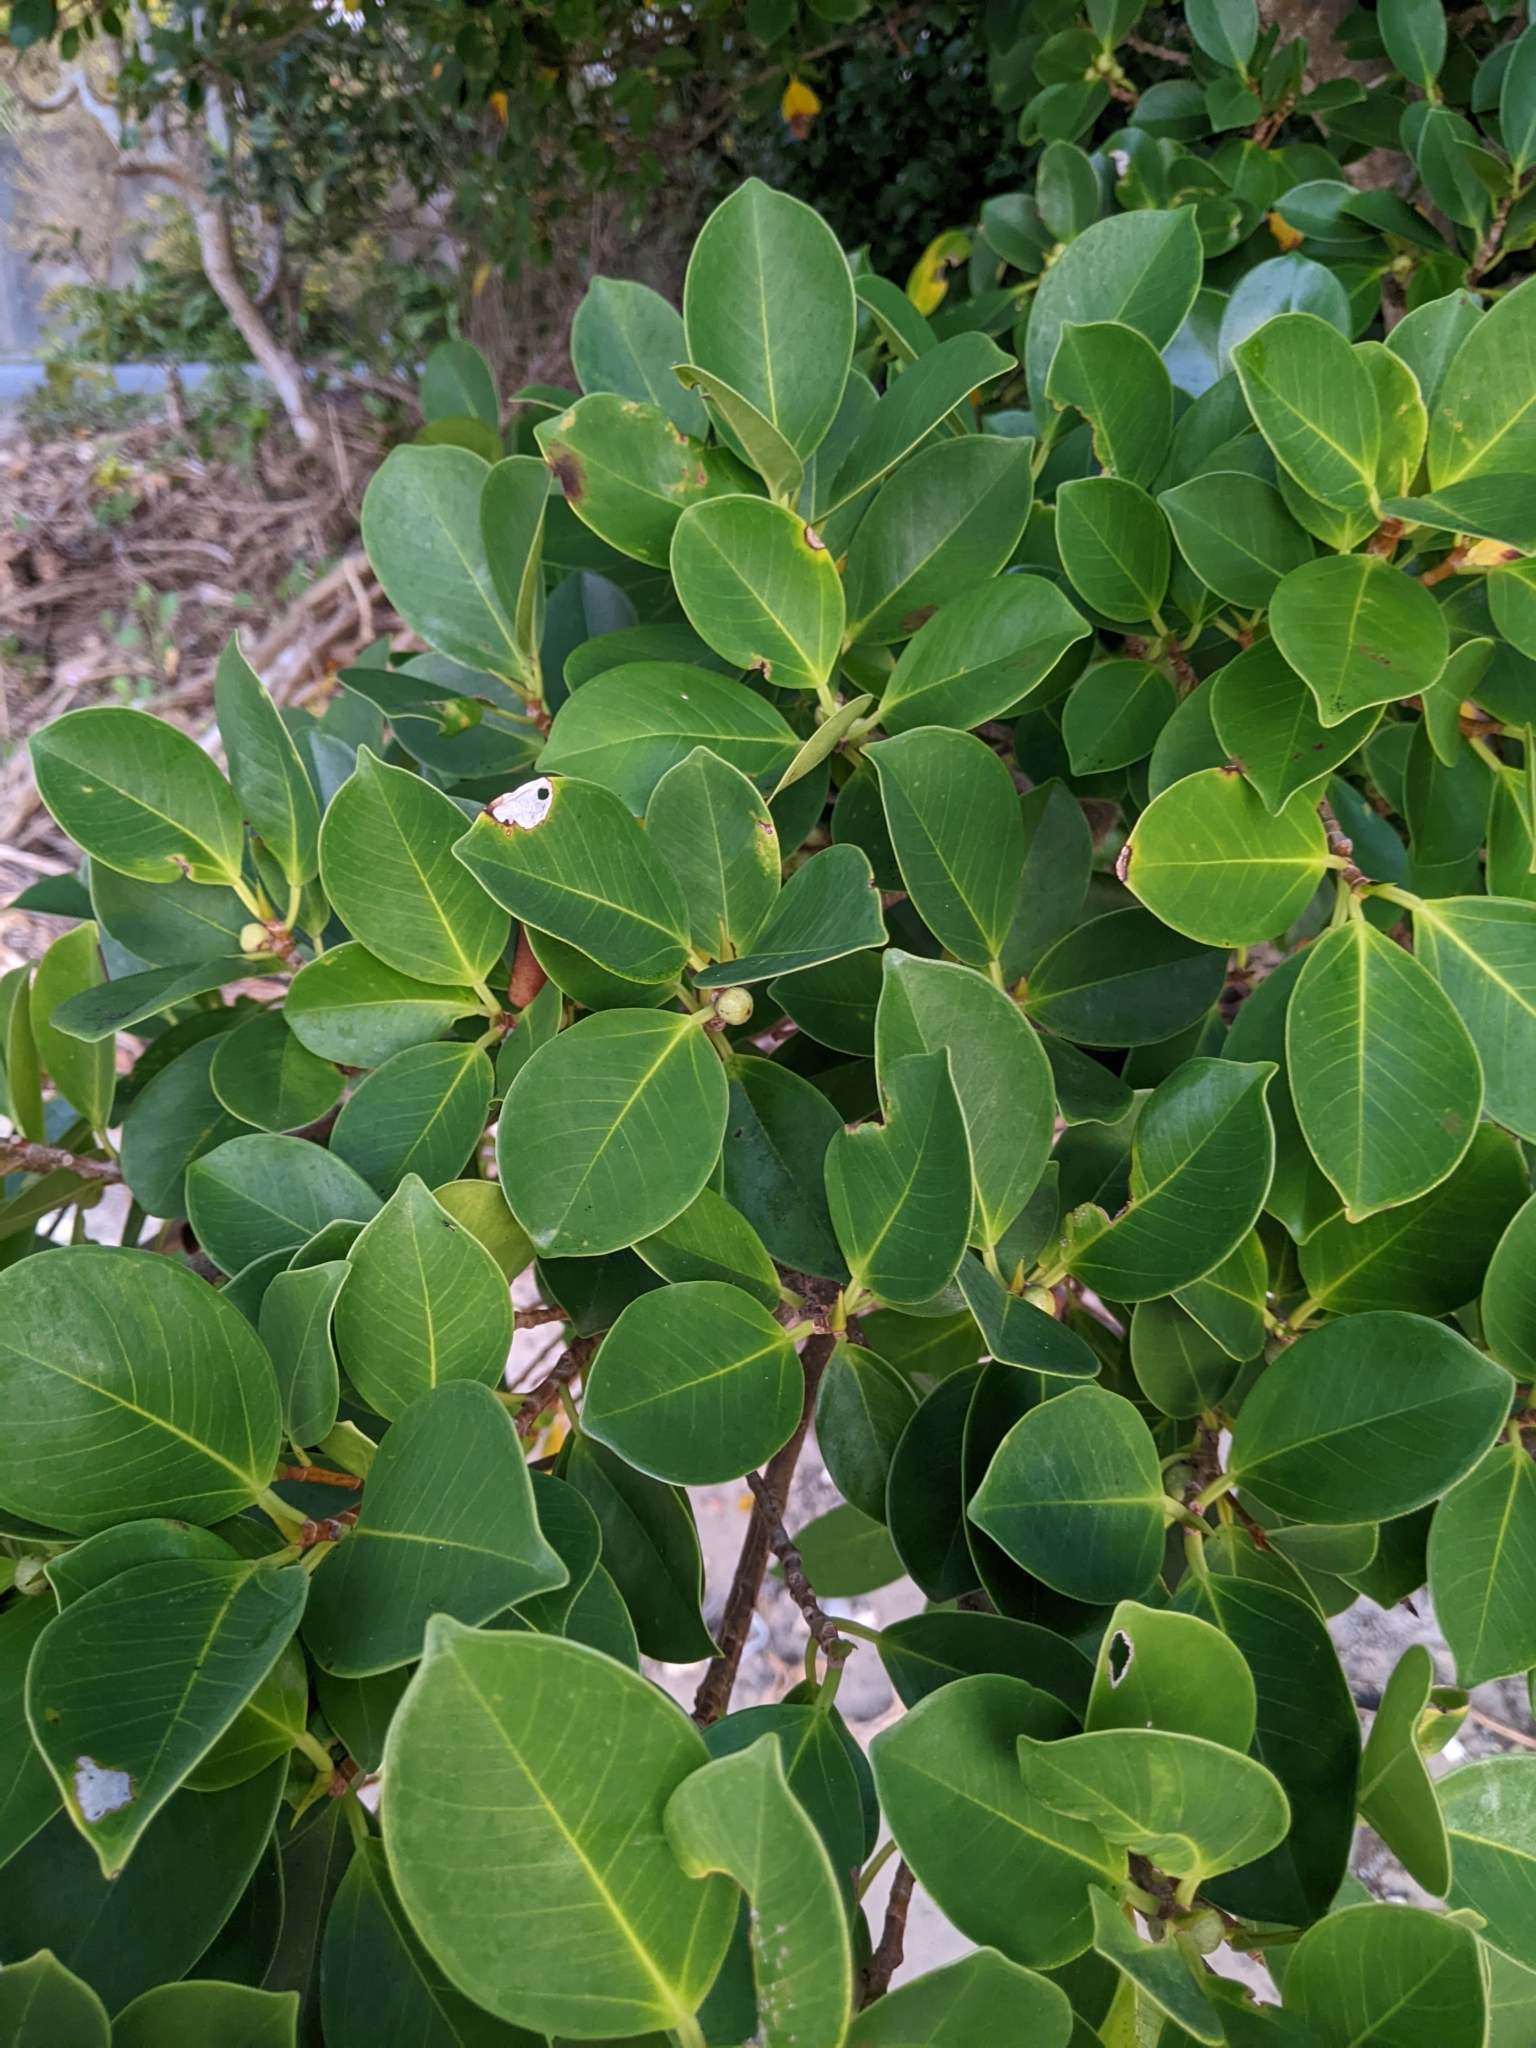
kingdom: Plantae
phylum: Tracheophyta
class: Magnoliopsida
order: Rosales
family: Moraceae
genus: Ficus
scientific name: Ficus microcarpa
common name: Chinese banyan
